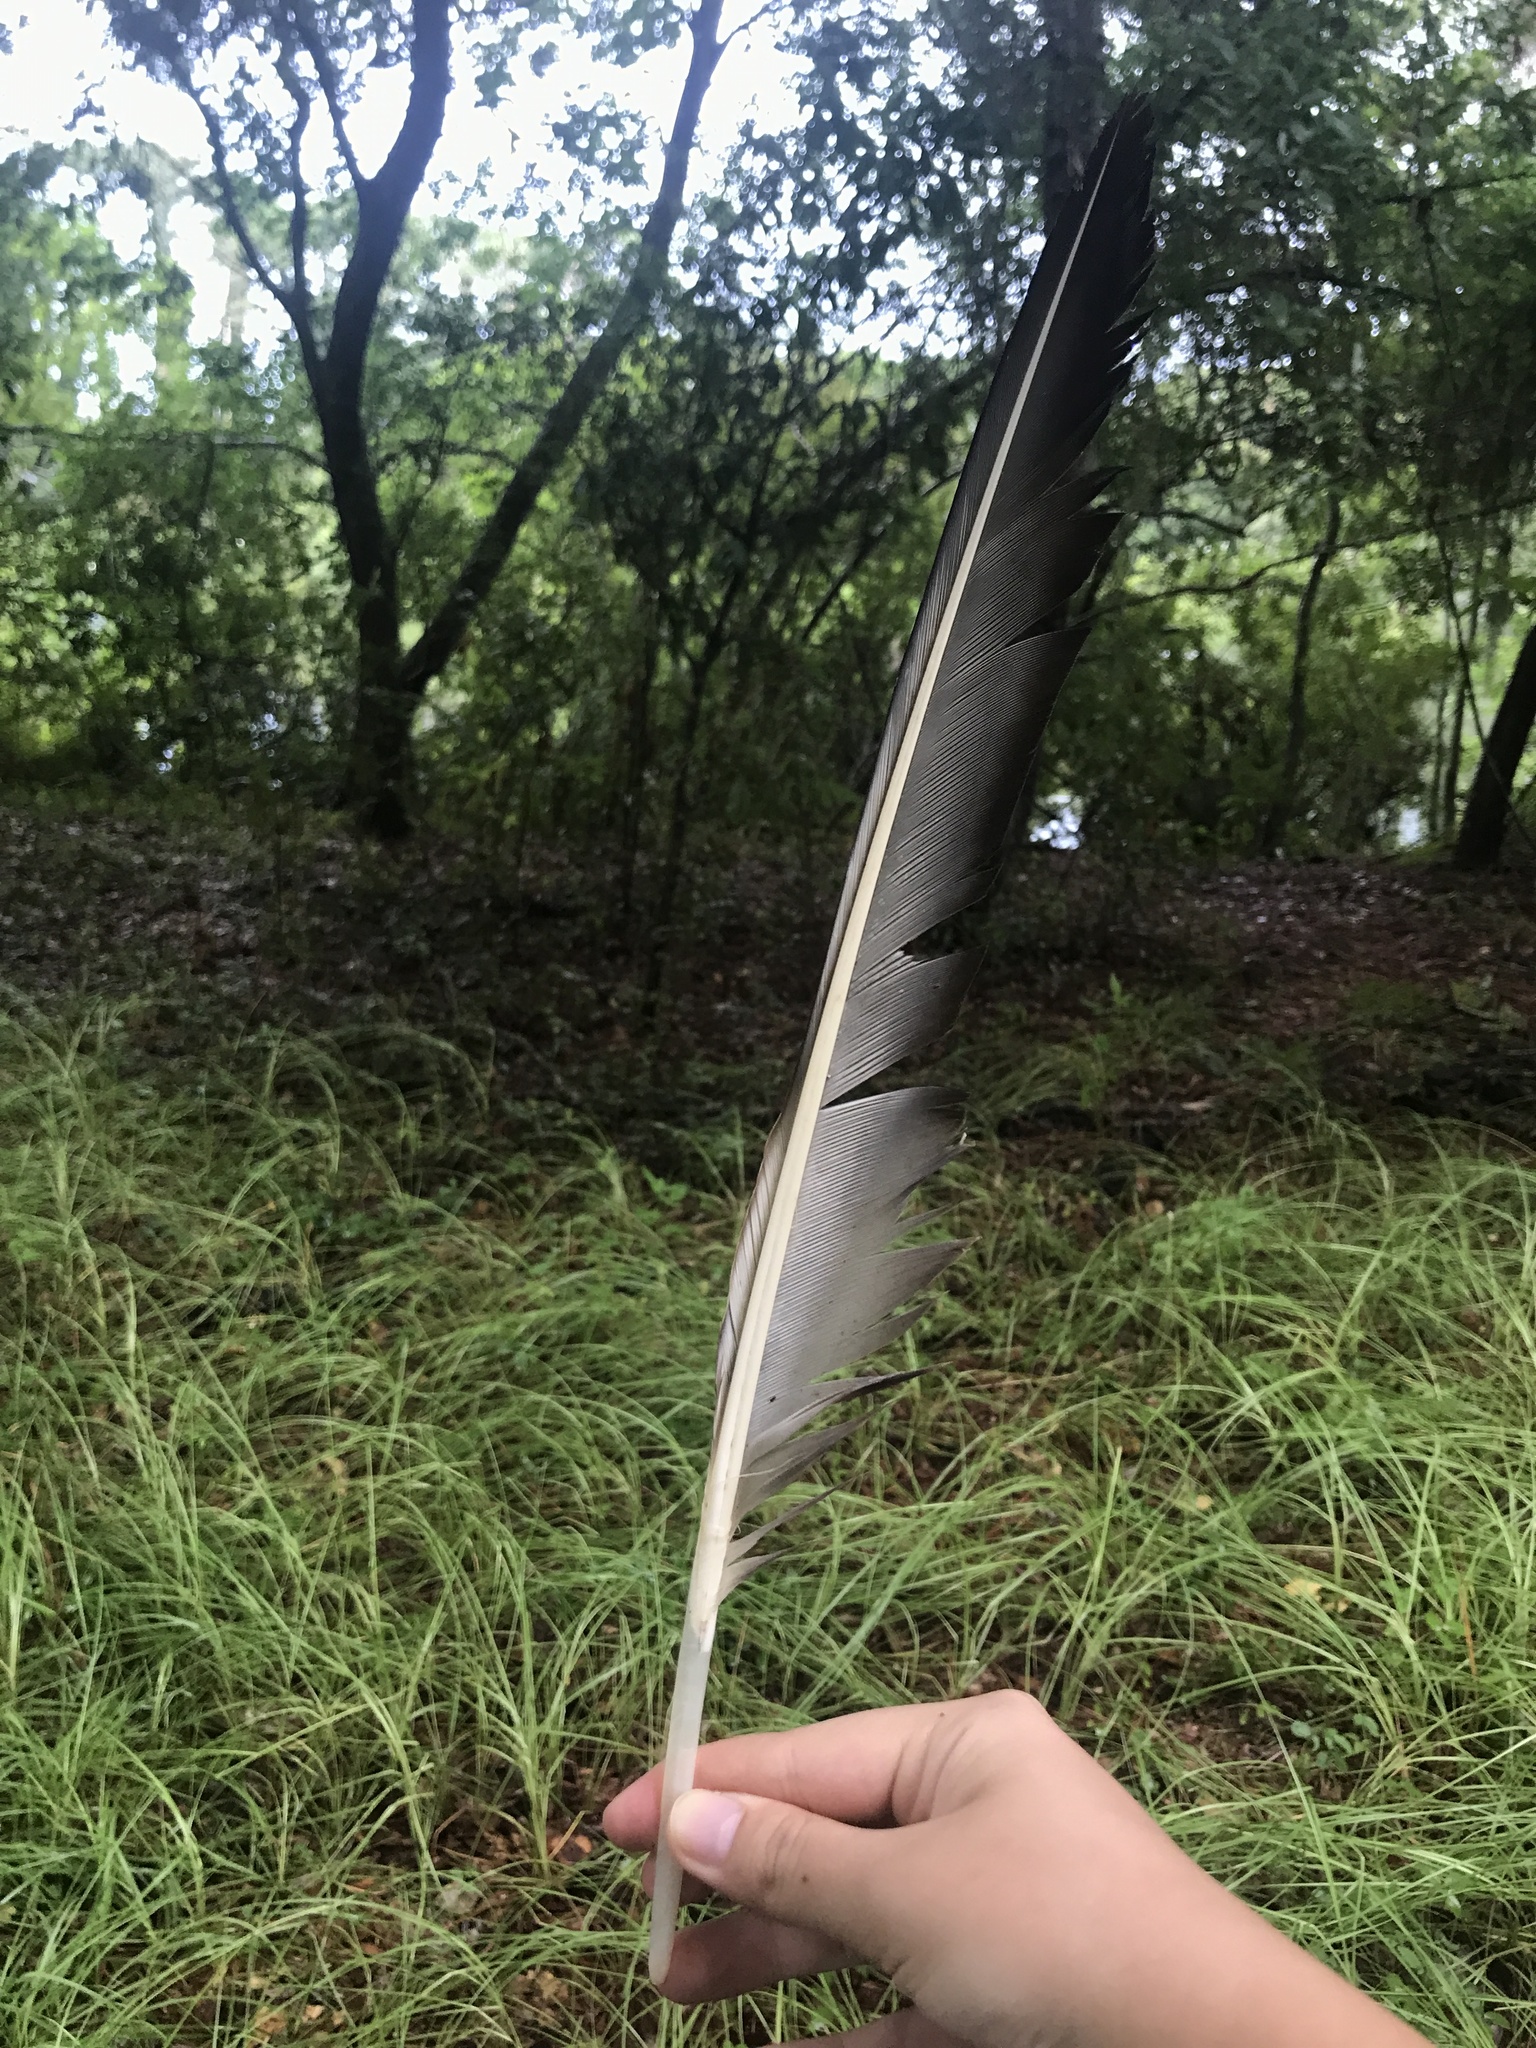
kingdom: Animalia
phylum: Chordata
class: Aves
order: Accipitriformes
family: Cathartidae
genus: Coragyps
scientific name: Coragyps atratus
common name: Black vulture
